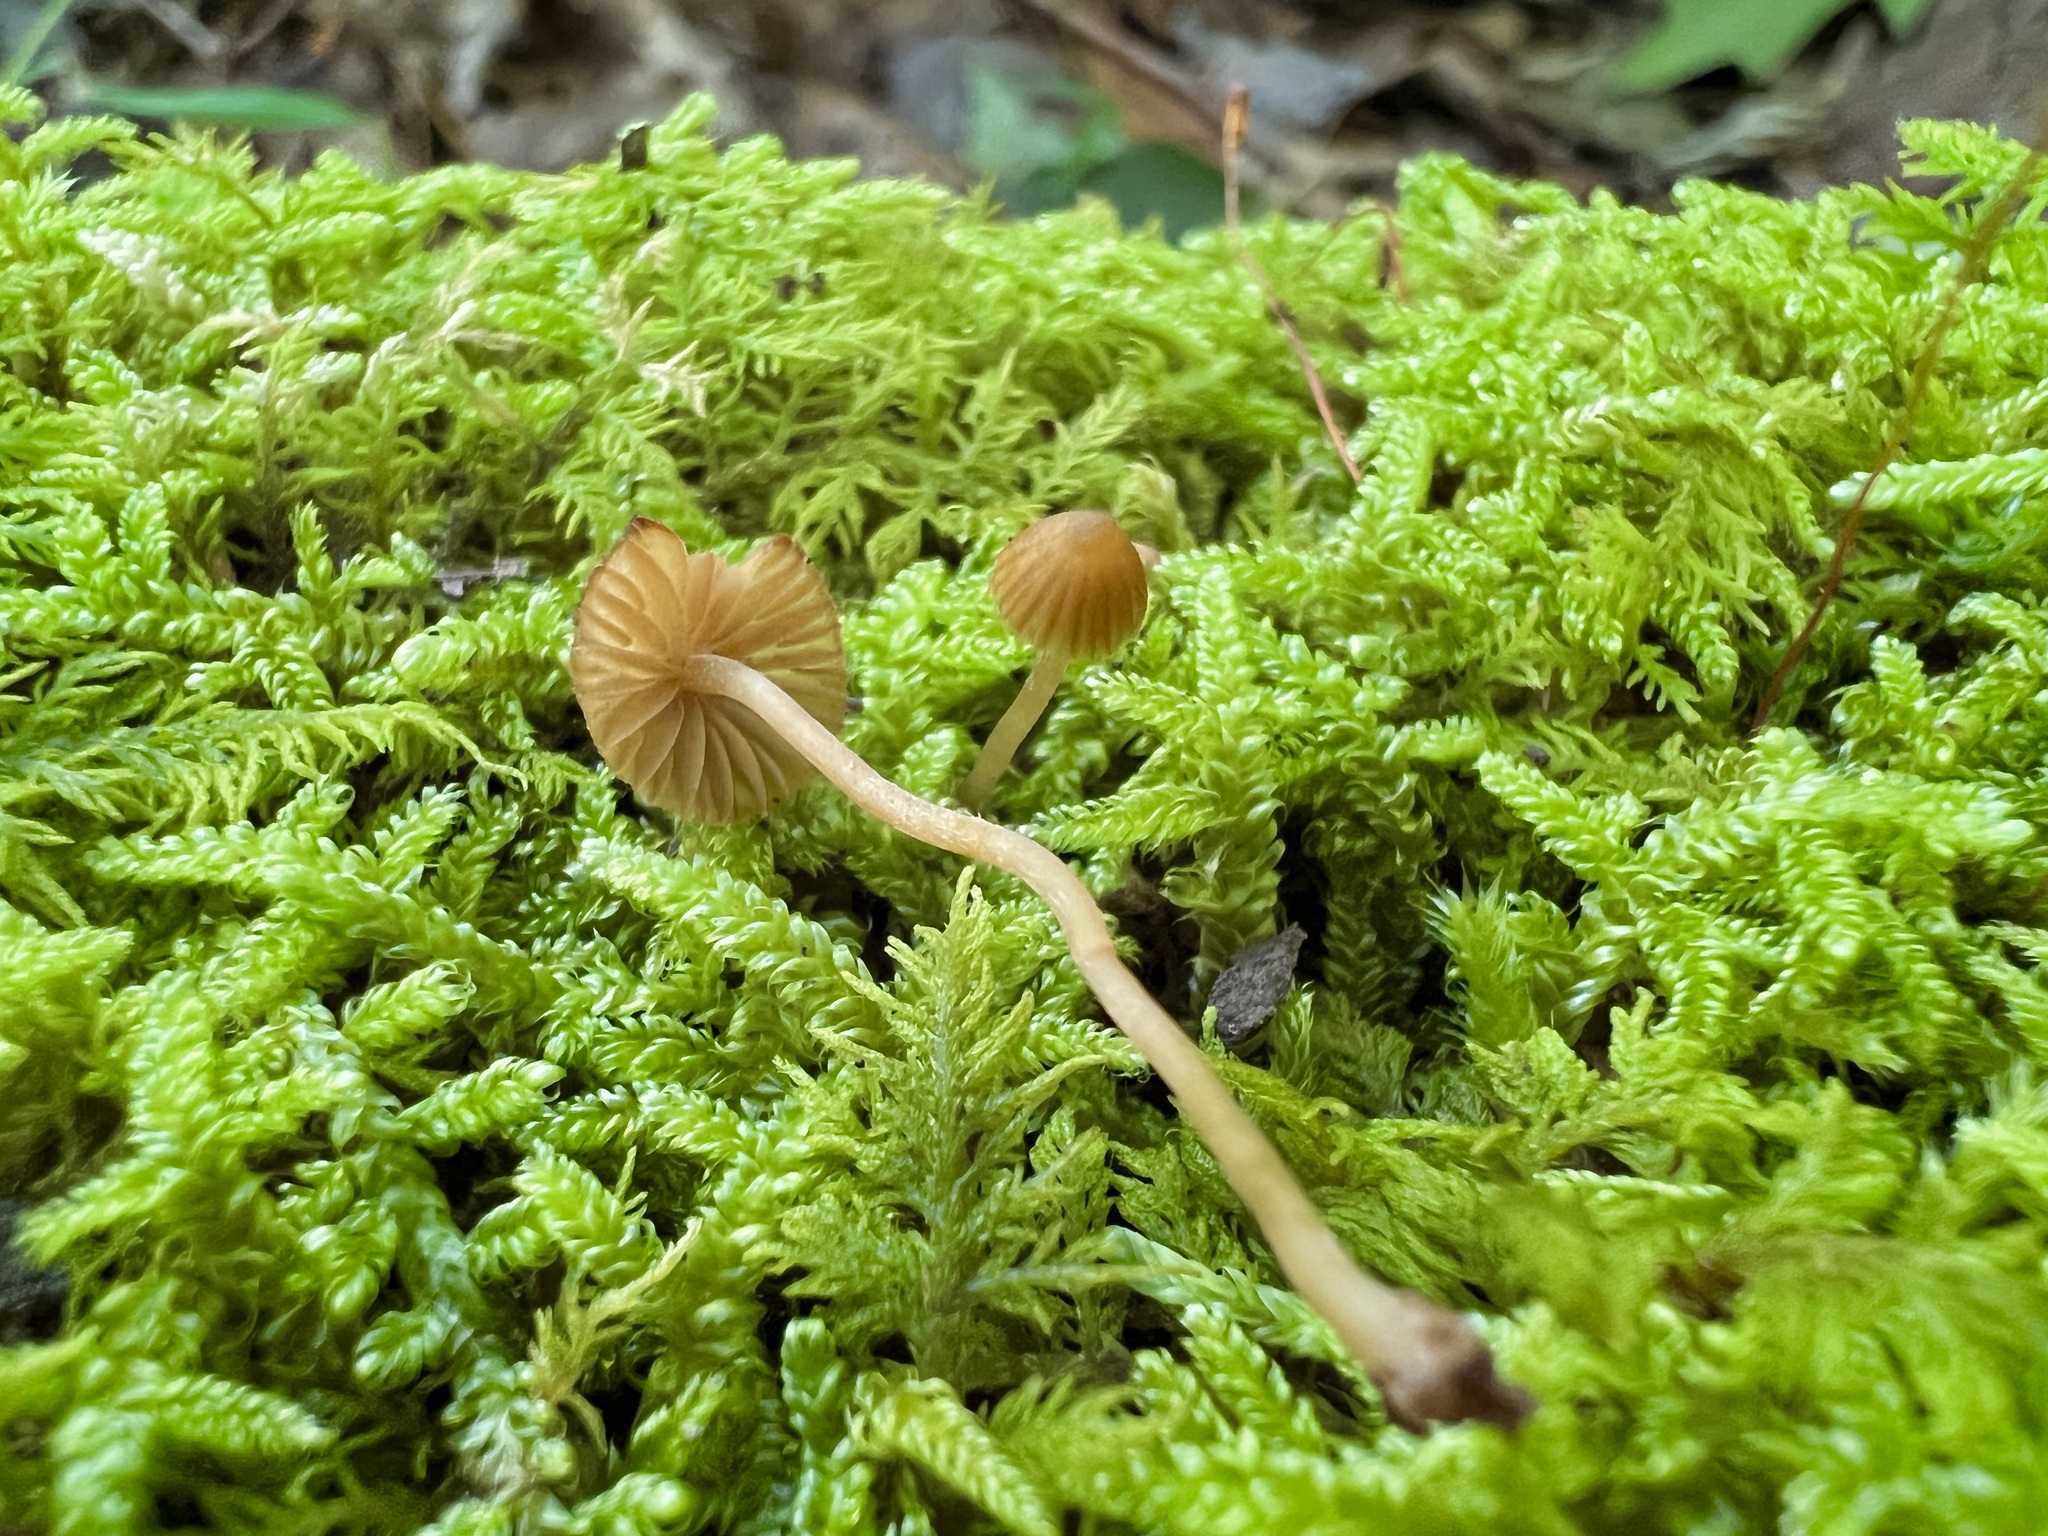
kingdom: Fungi
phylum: Basidiomycota
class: Agaricomycetes
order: Agaricales
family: Hymenogastraceae
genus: Galerina
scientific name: Galerina hypnorum
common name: Moss bell
